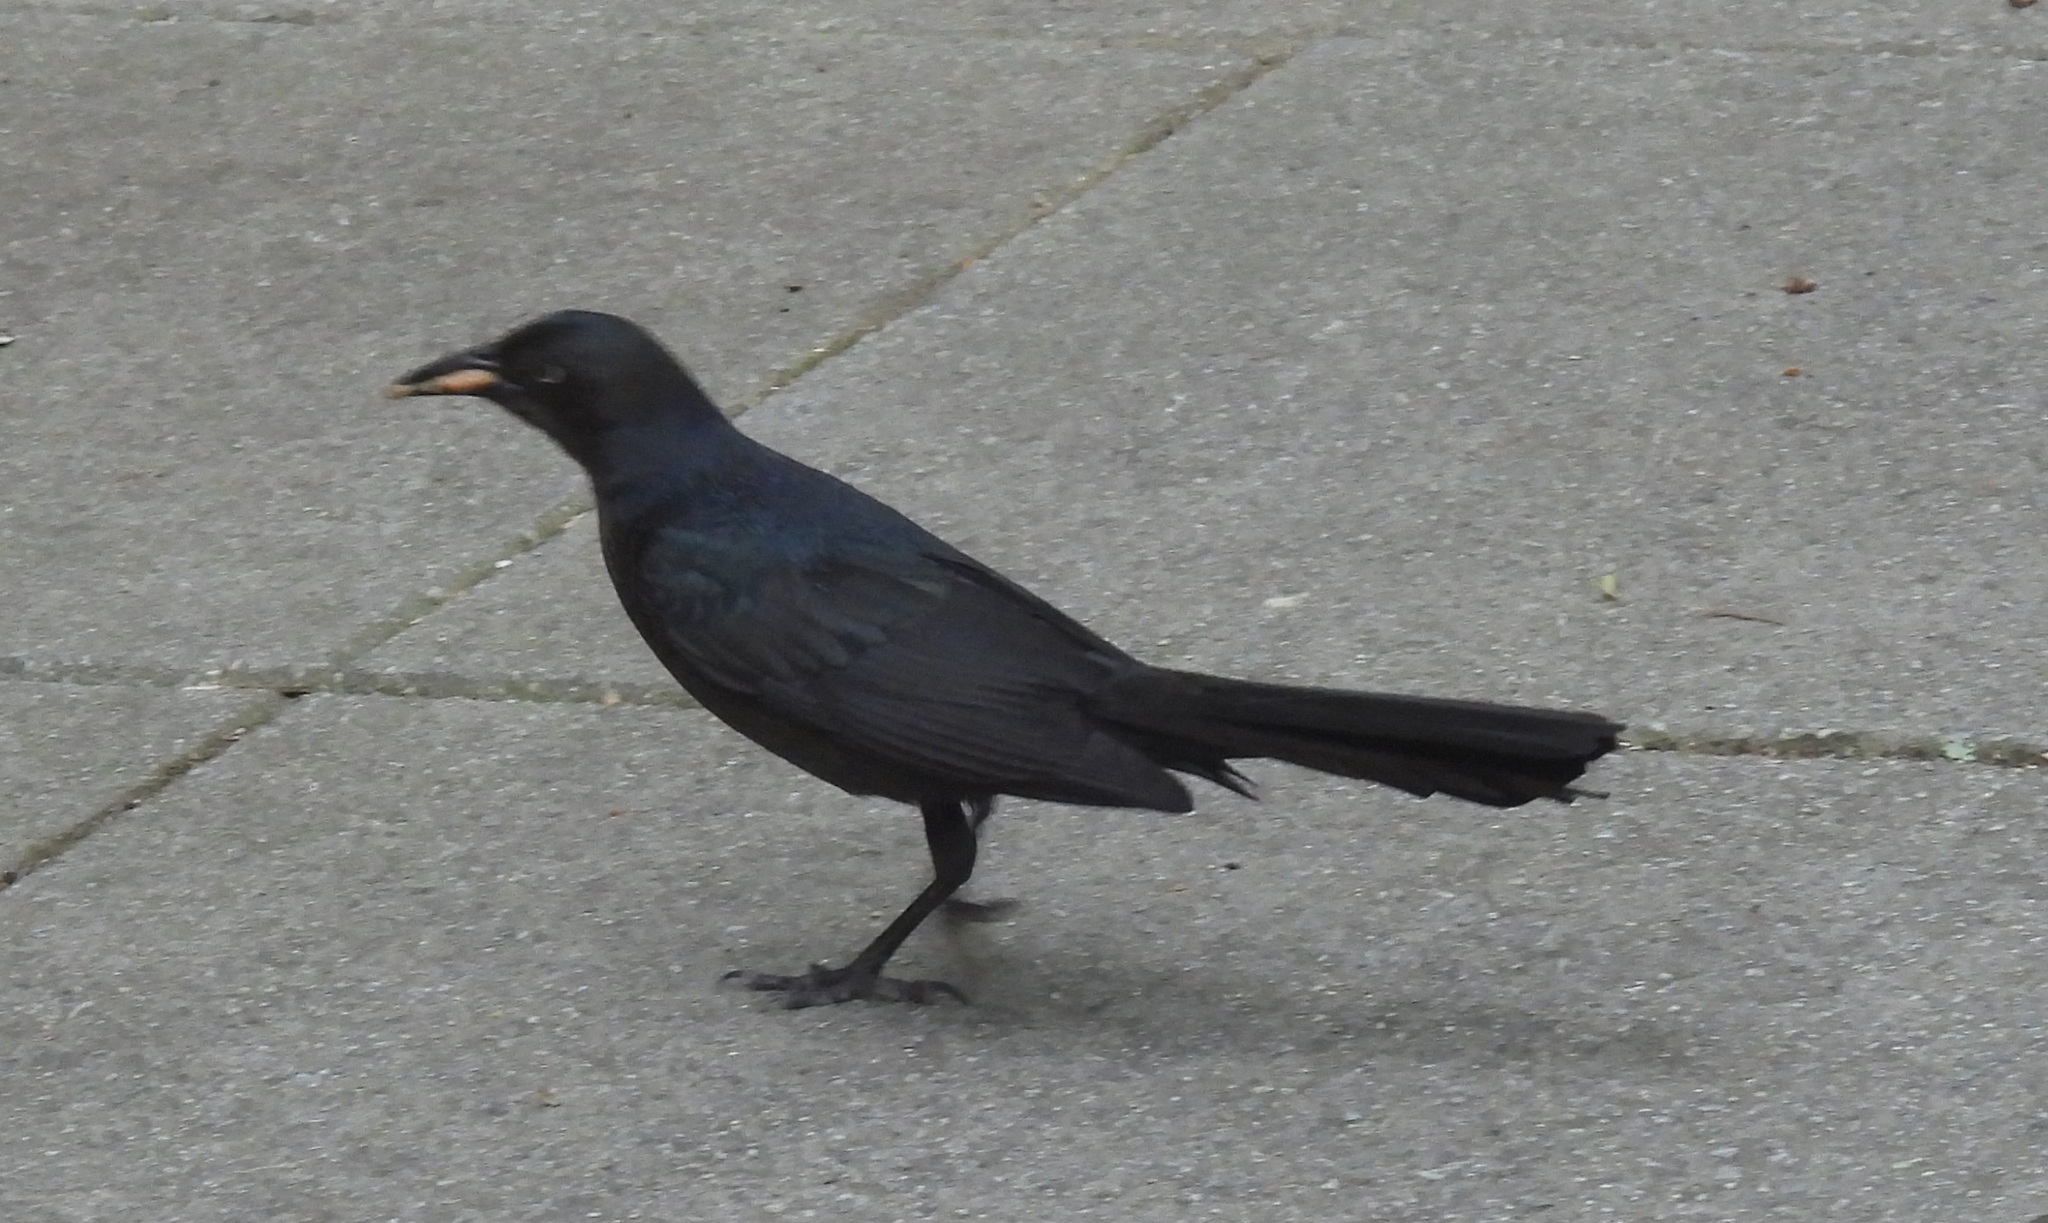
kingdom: Animalia
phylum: Chordata
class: Aves
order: Passeriformes
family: Icteridae
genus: Quiscalus
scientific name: Quiscalus mexicanus
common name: Great-tailed grackle
